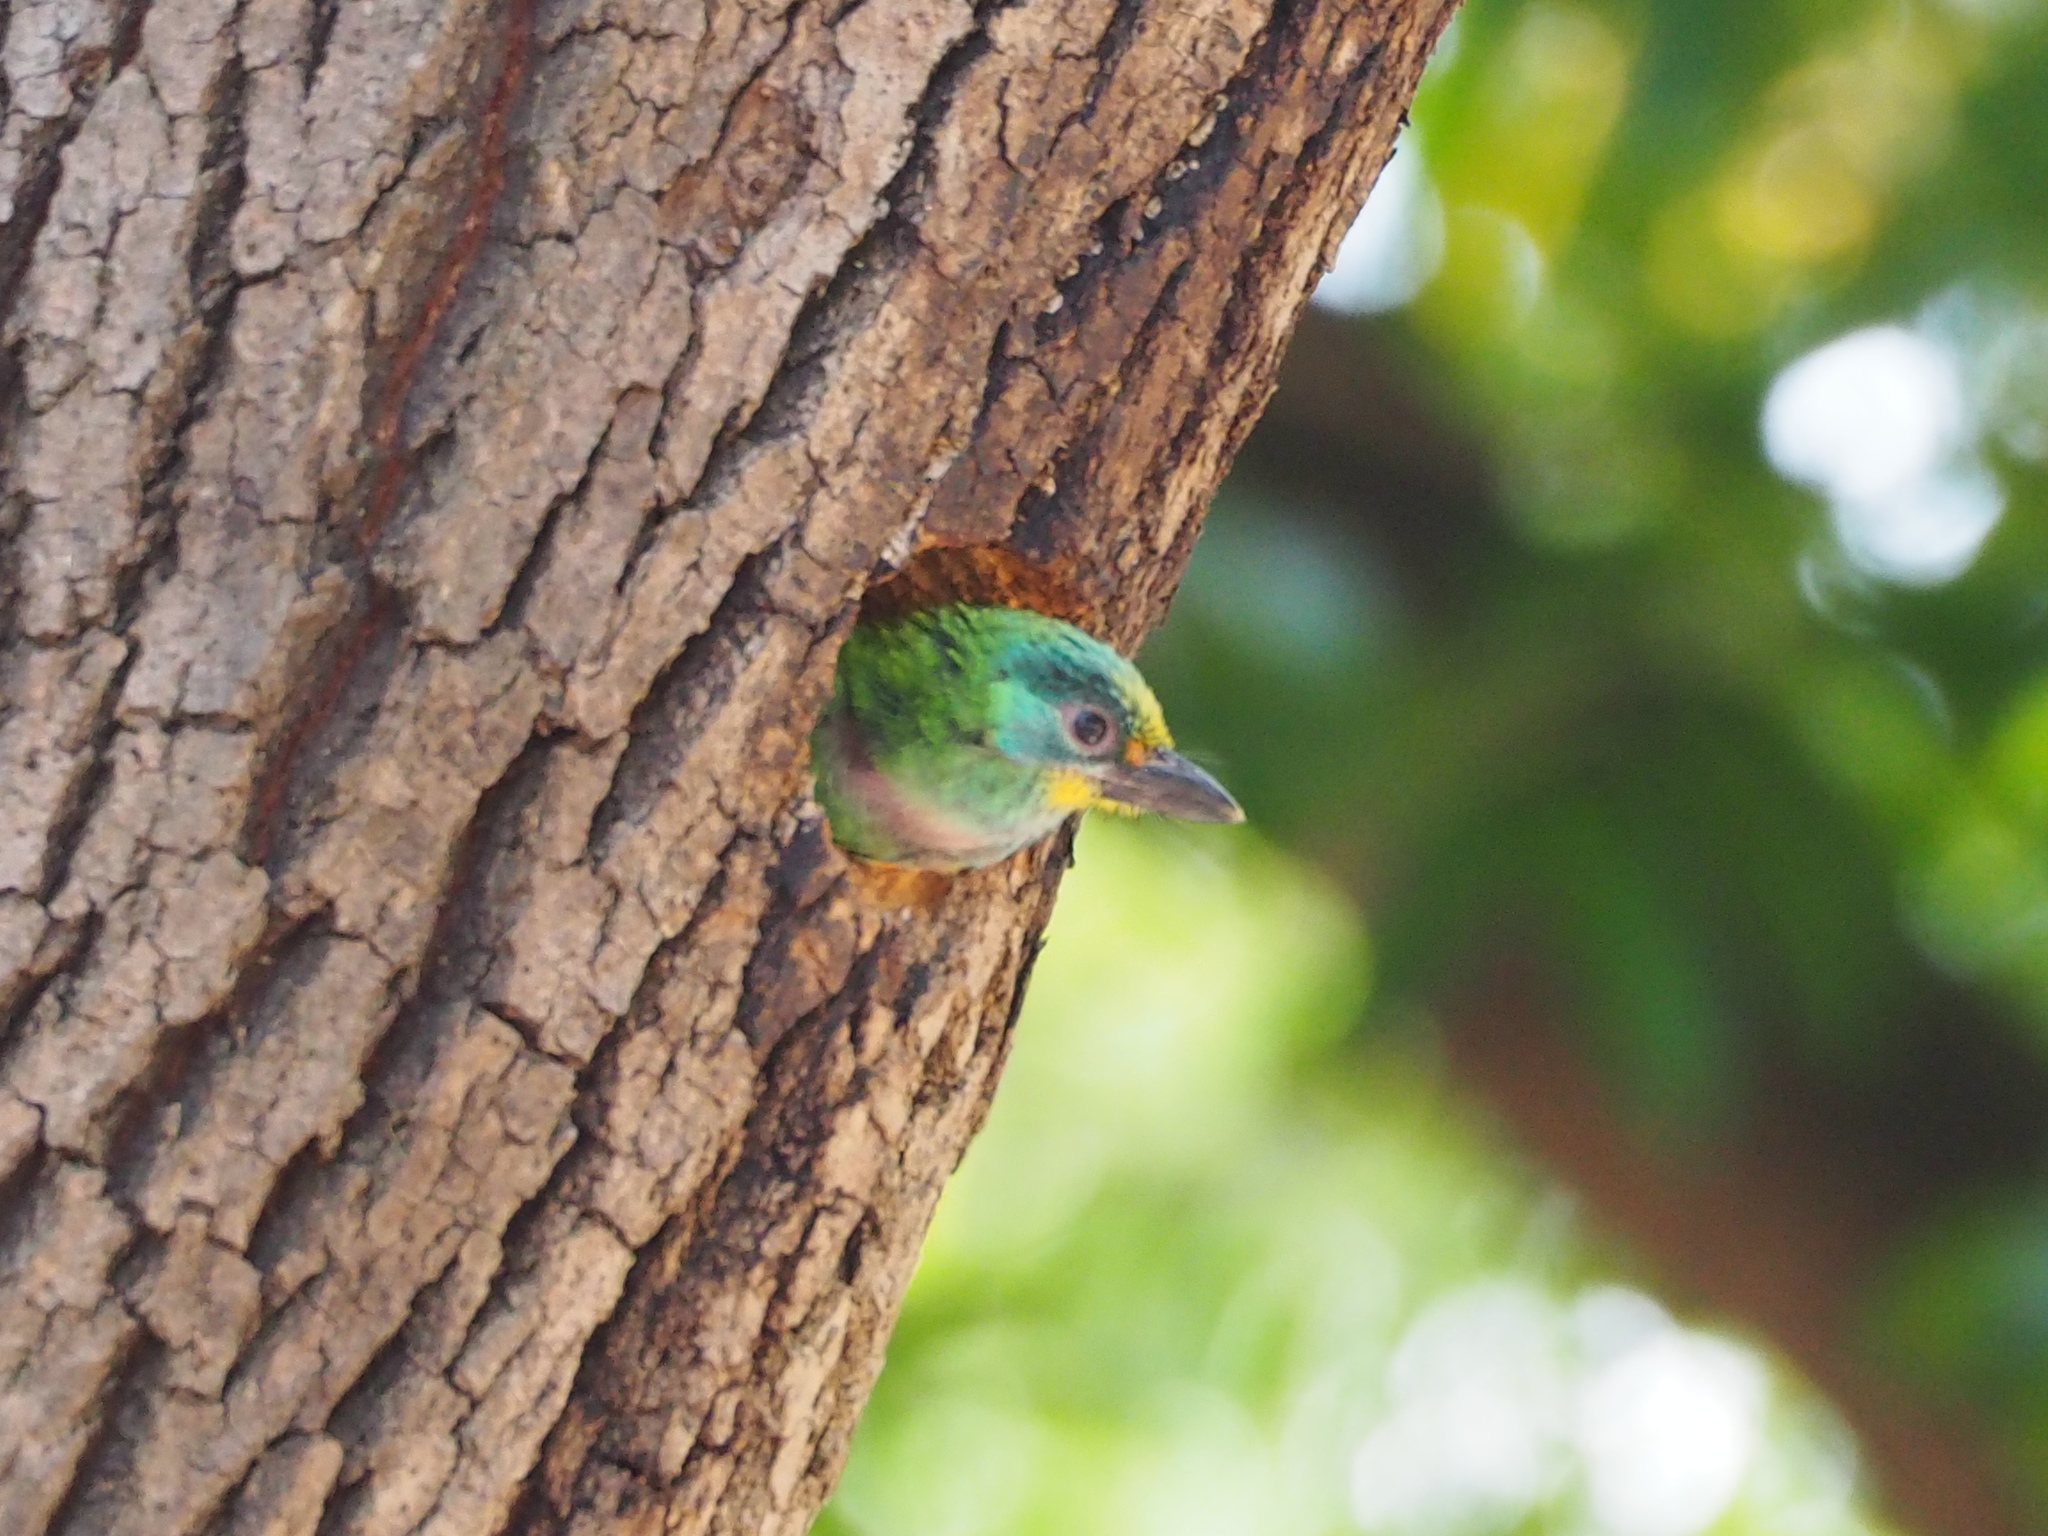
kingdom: Animalia
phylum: Chordata
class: Aves
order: Piciformes
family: Megalaimidae
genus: Psilopogon
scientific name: Psilopogon nuchalis
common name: Taiwan barbet
